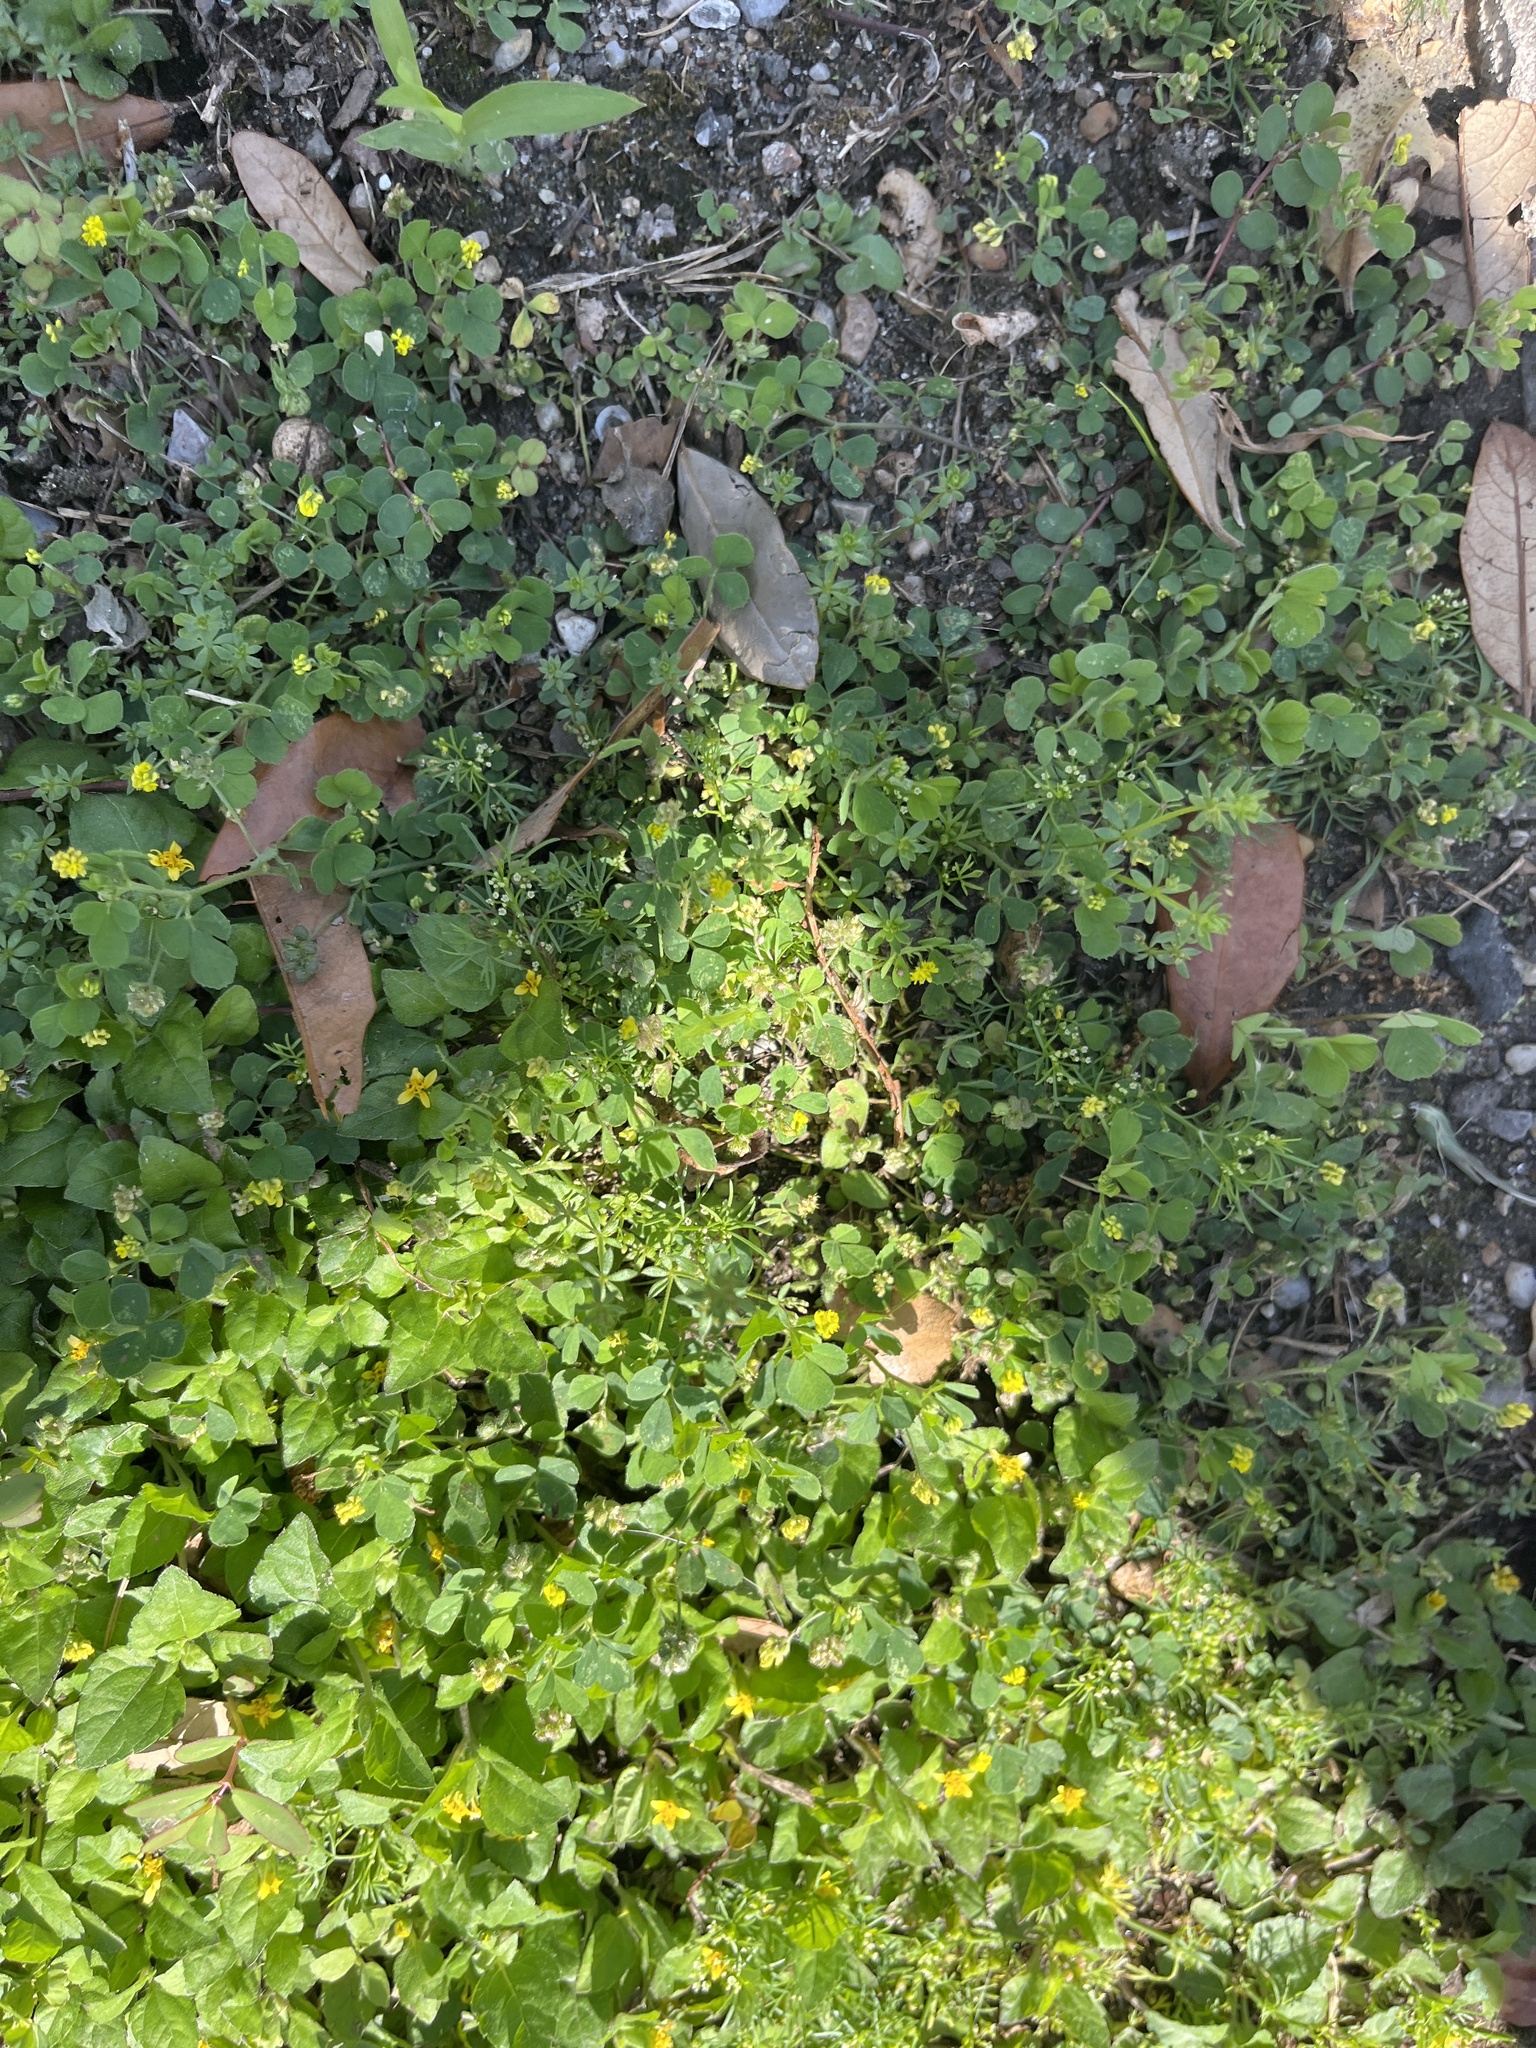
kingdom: Plantae
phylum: Tracheophyta
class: Magnoliopsida
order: Fabales
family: Fabaceae
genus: Medicago
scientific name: Medicago lupulina
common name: Black medick
